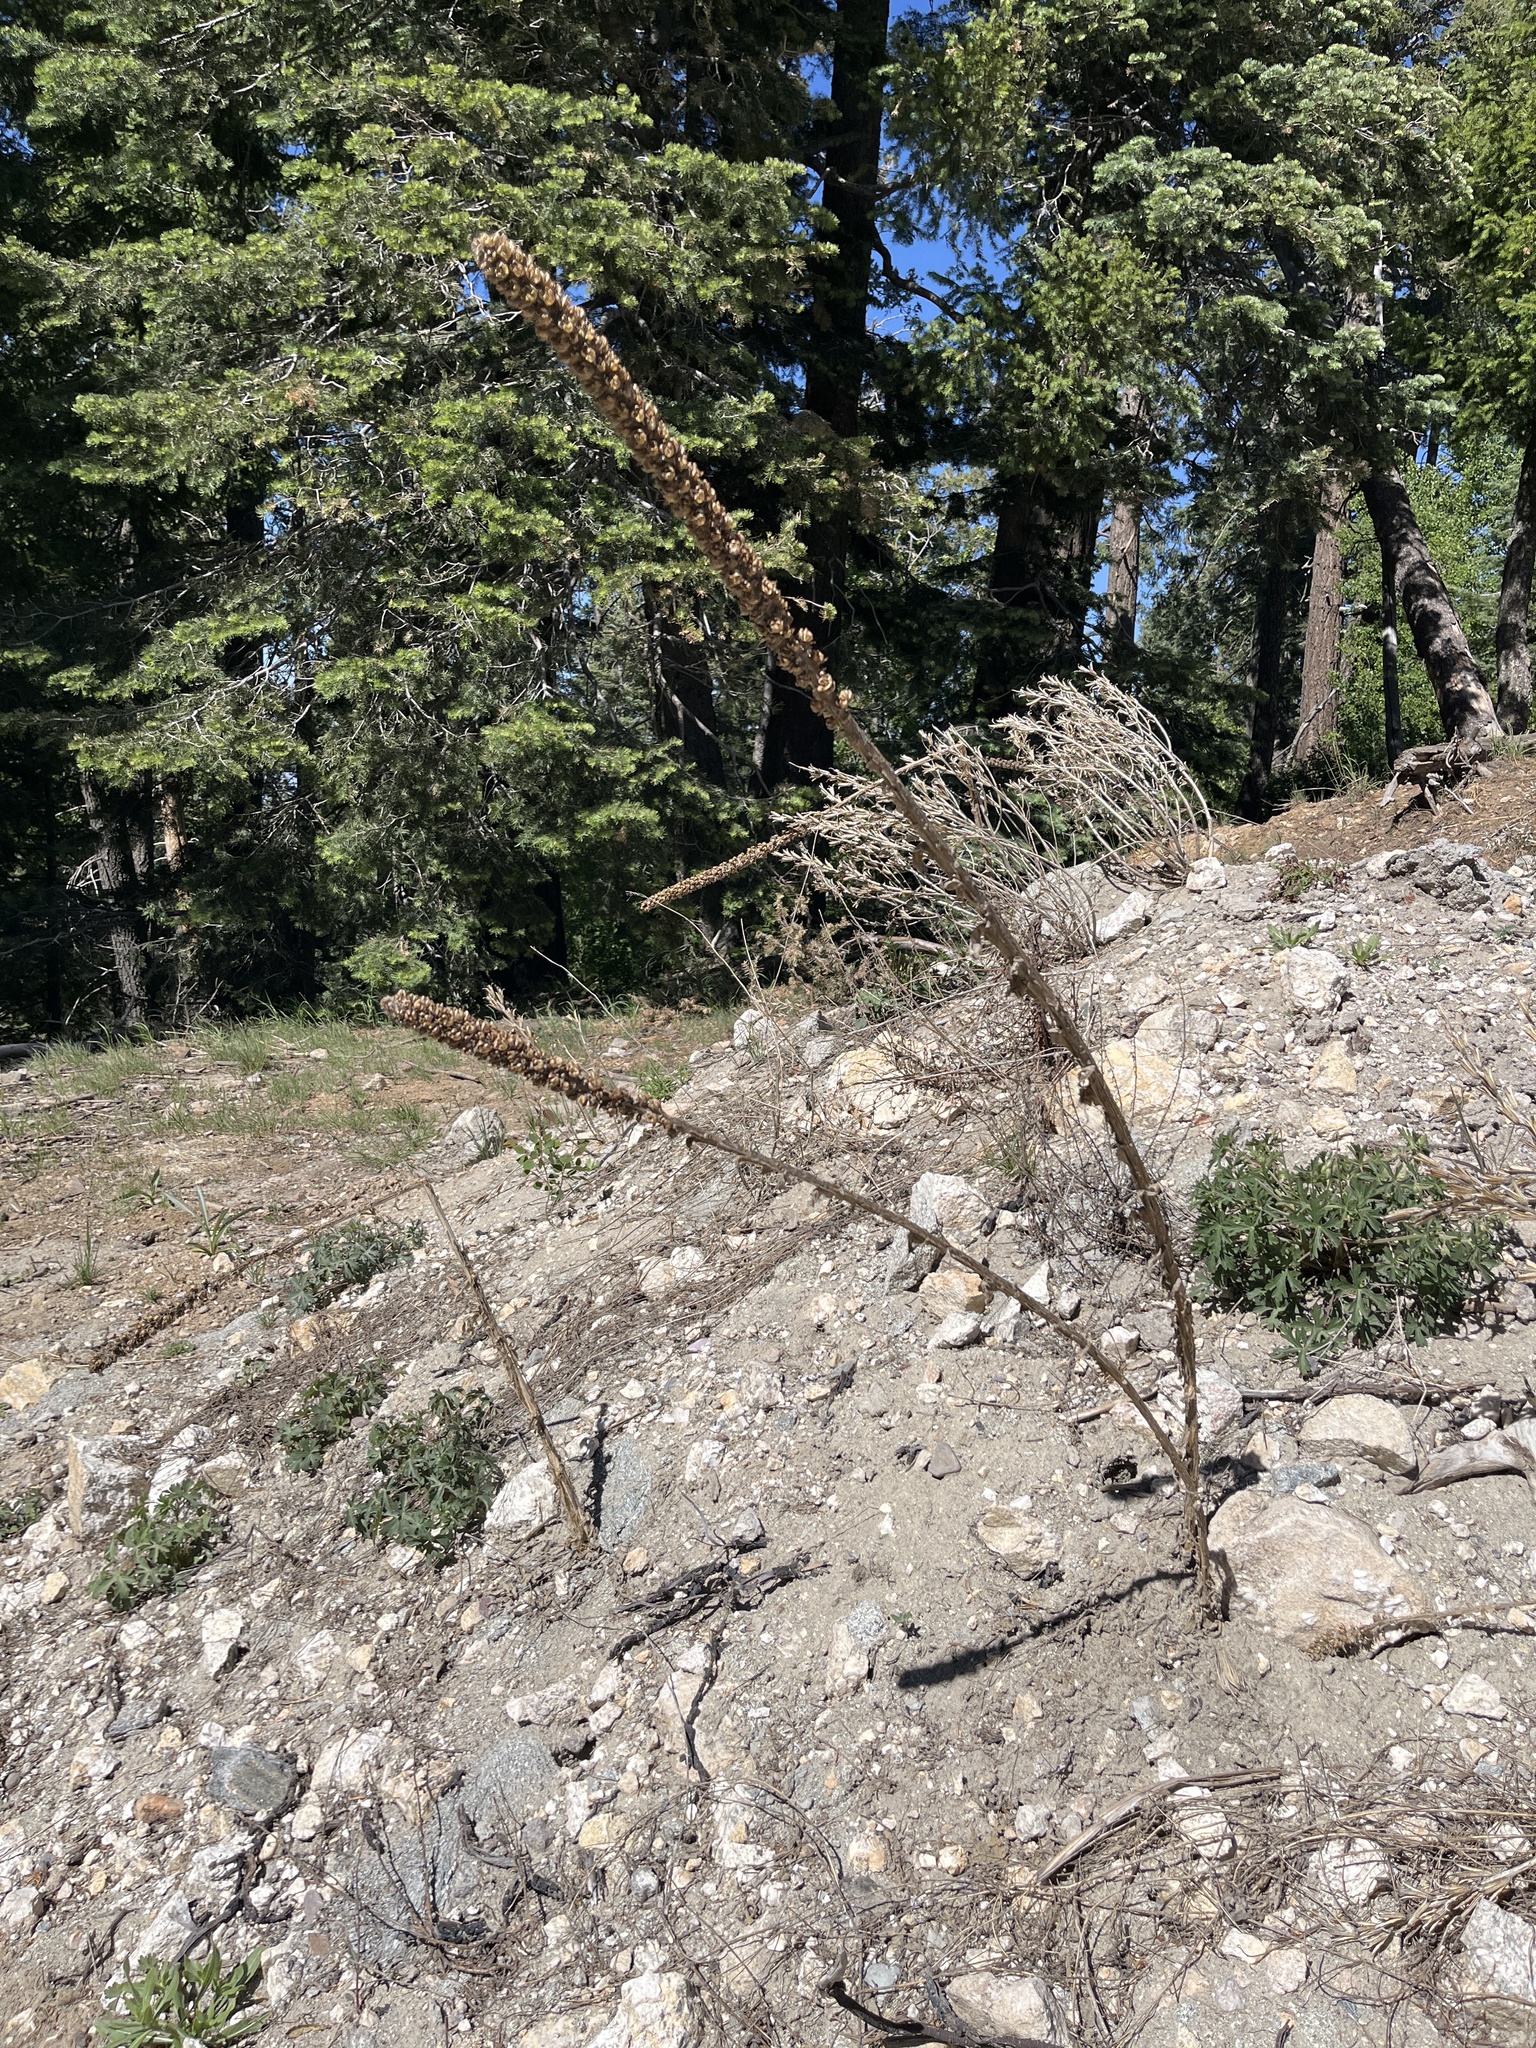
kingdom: Plantae
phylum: Tracheophyta
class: Magnoliopsida
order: Lamiales
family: Scrophulariaceae
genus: Verbascum
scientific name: Verbascum thapsus
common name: Common mullein
